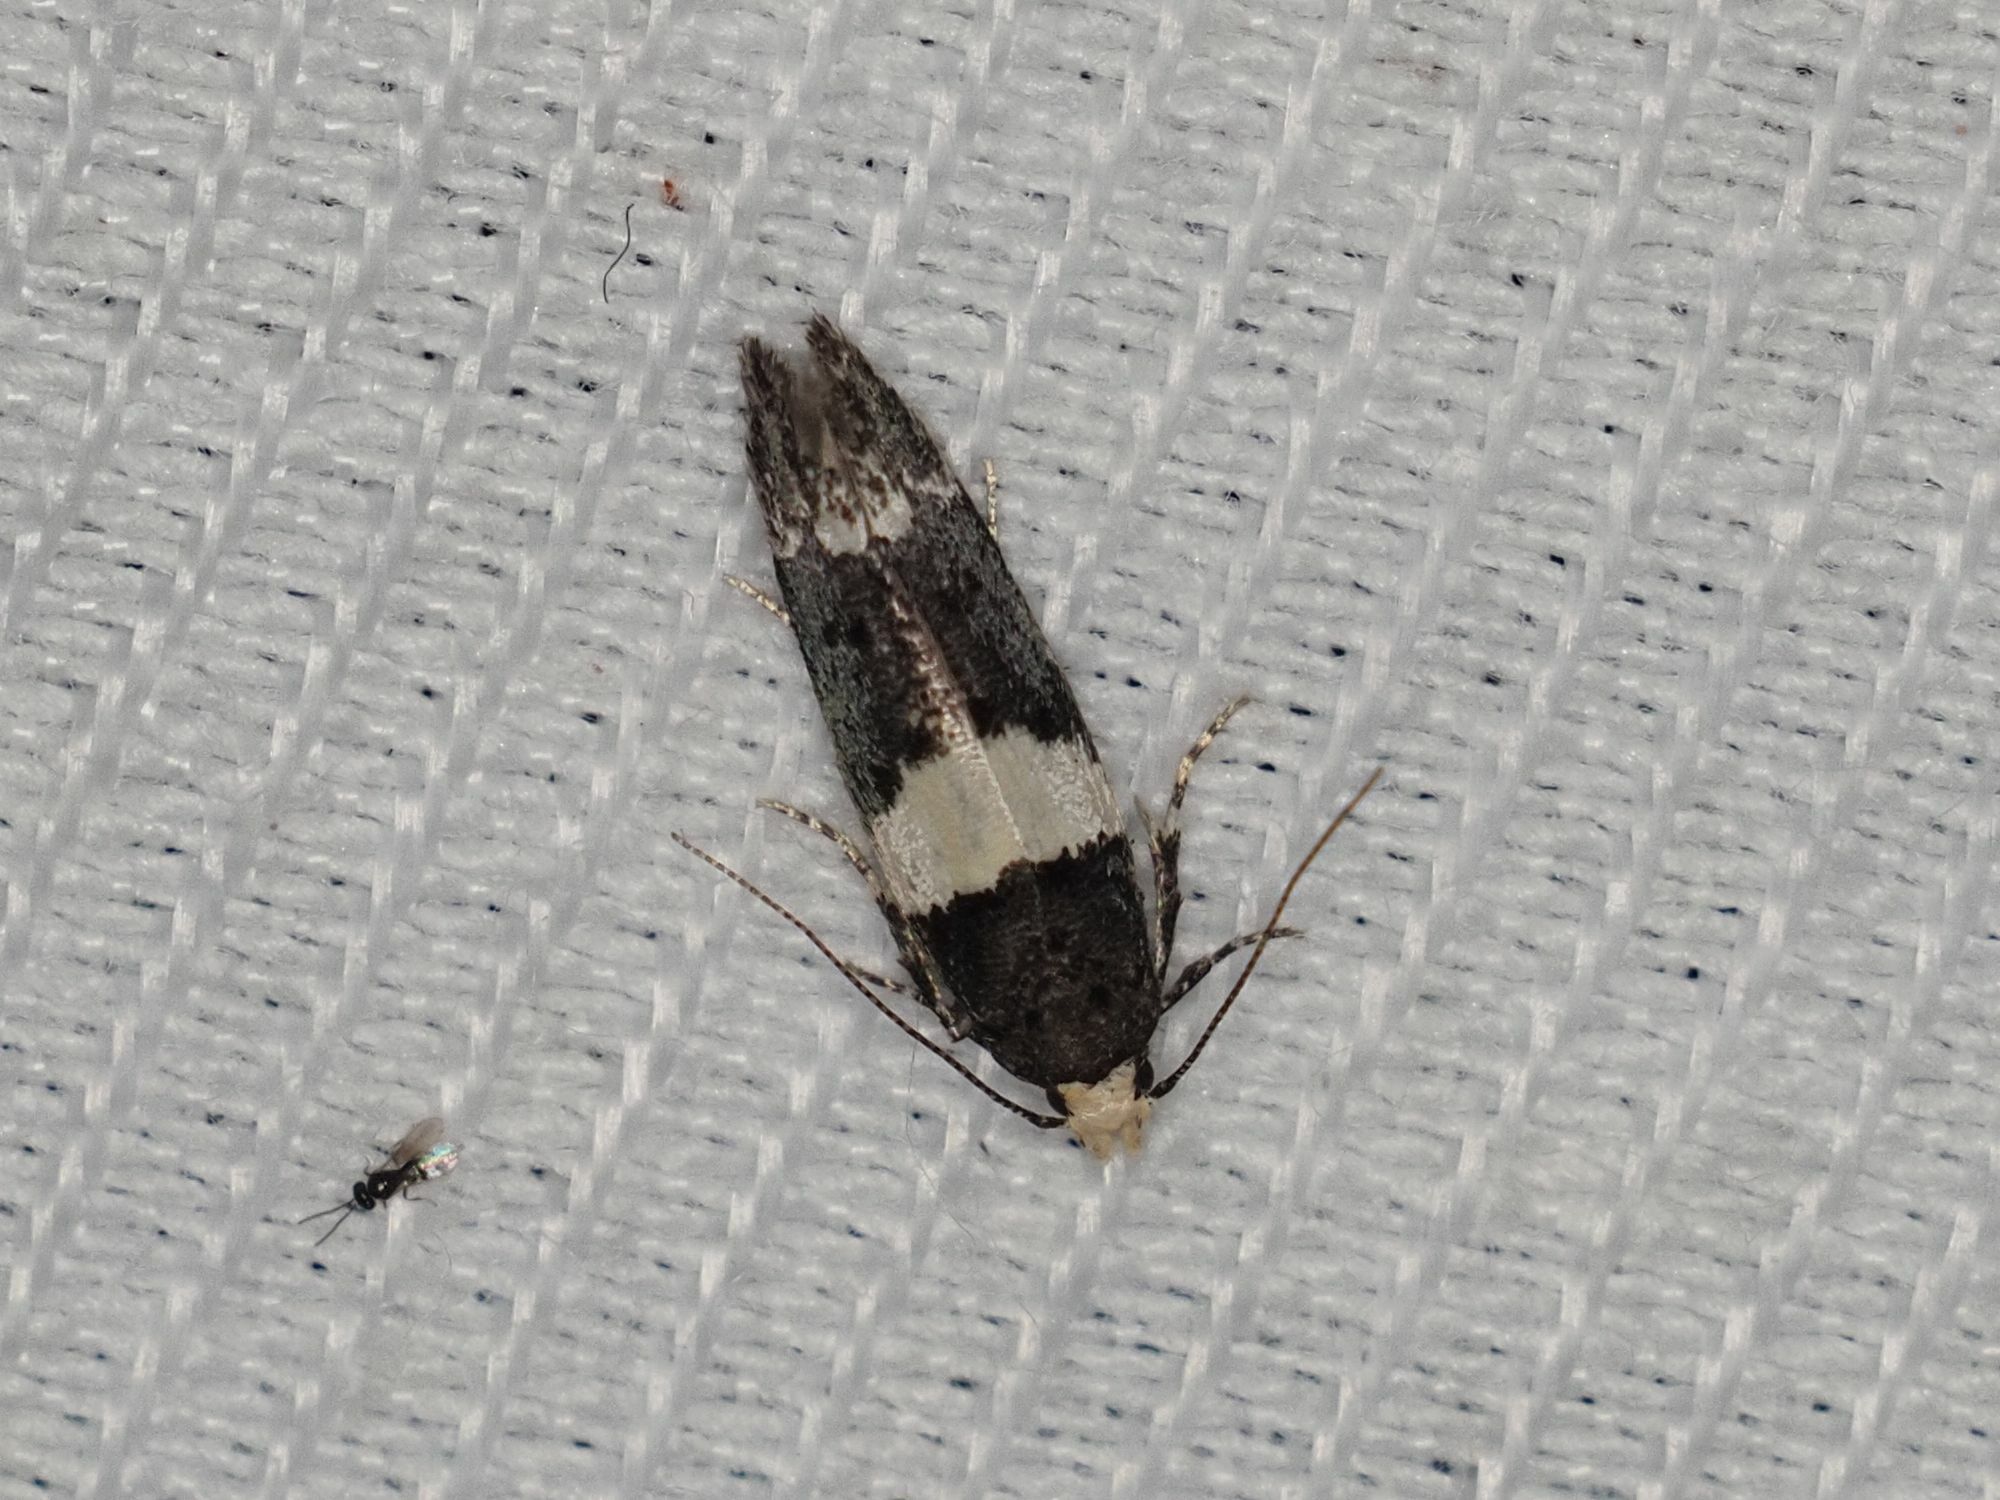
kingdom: Animalia
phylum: Arthropoda
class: Insecta
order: Lepidoptera
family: Gelechiidae
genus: Recurvaria
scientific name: Recurvaria leucatella
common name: White-barred groundling
